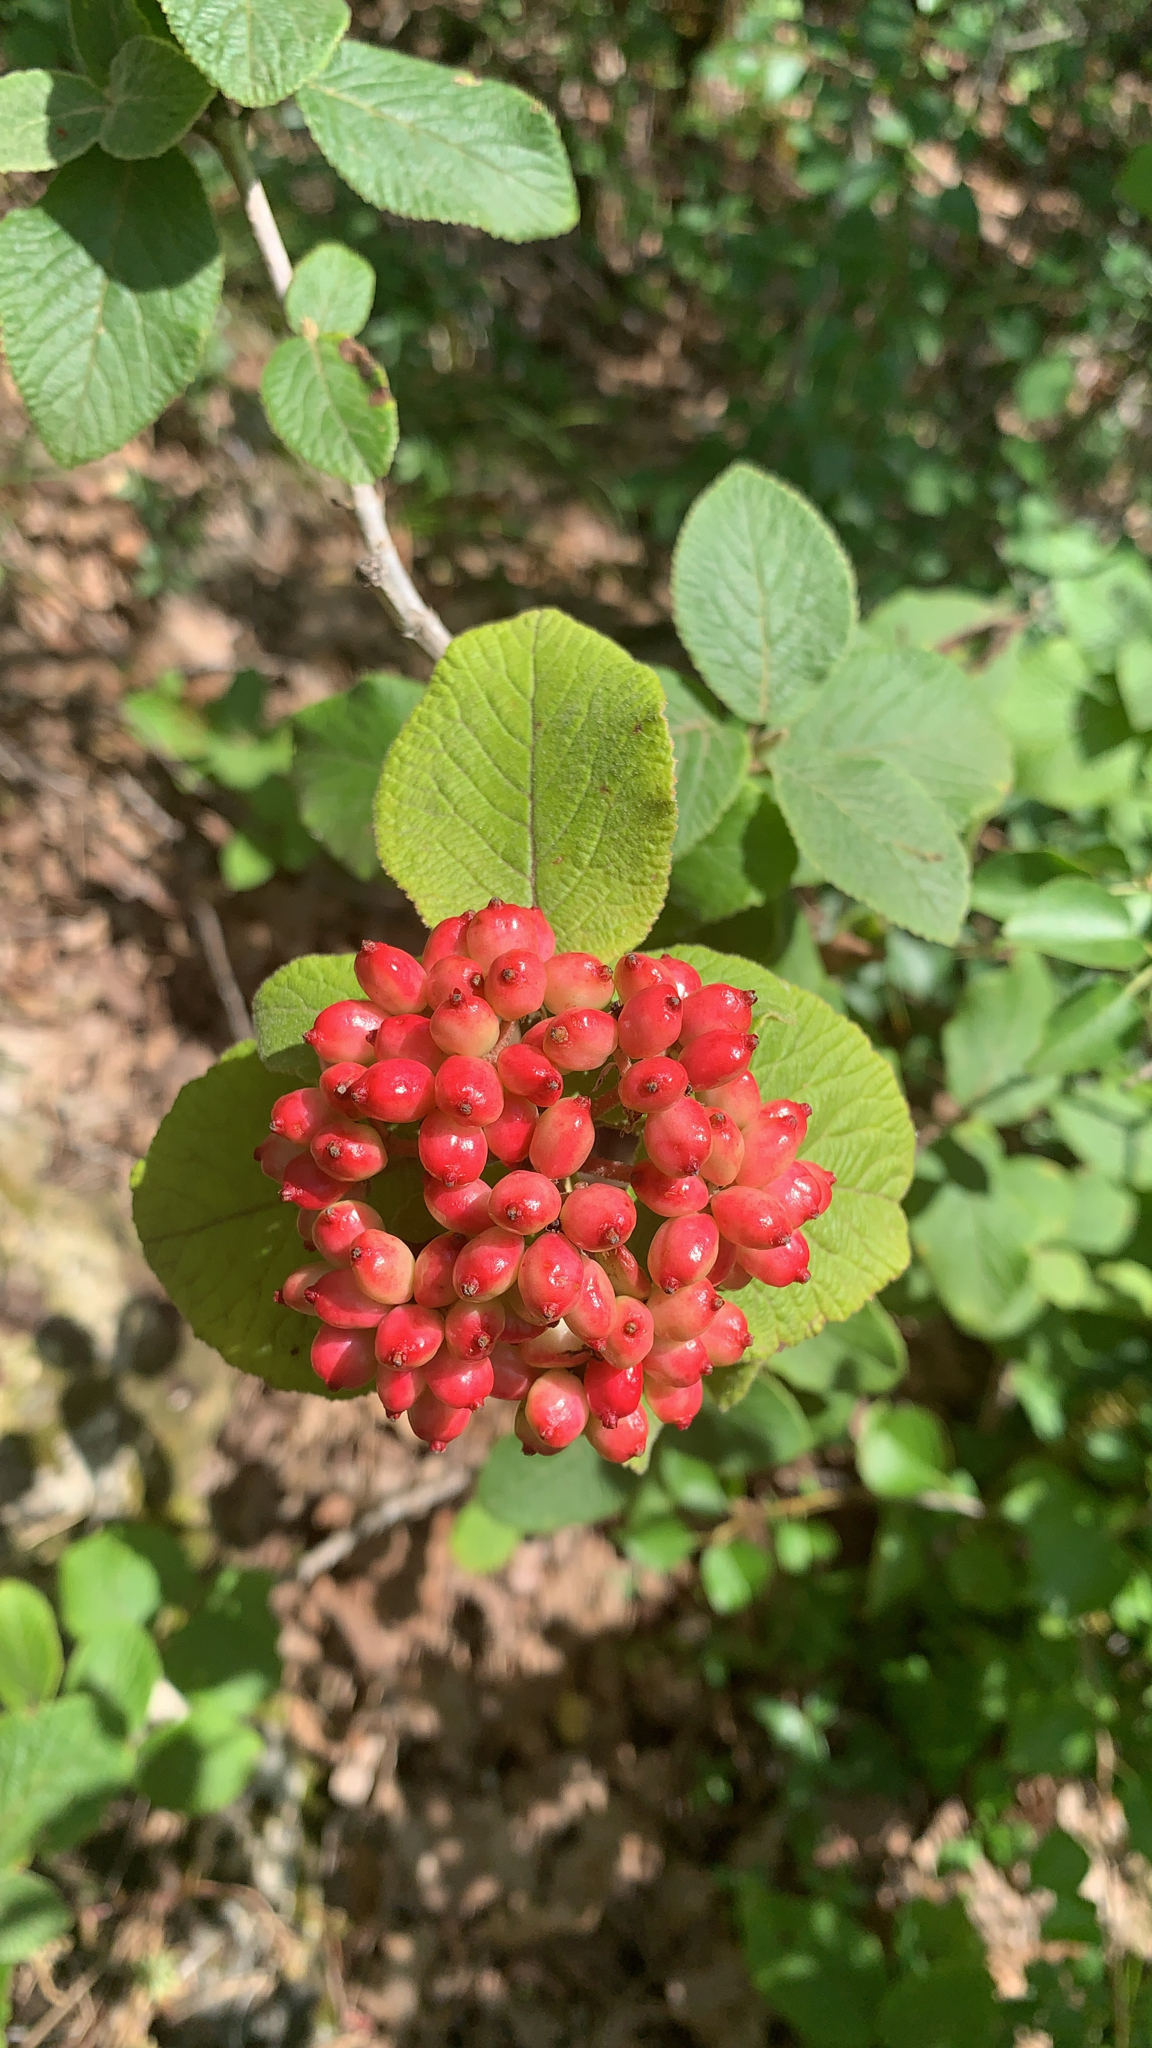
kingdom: Plantae
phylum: Tracheophyta
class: Magnoliopsida
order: Dipsacales
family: Viburnaceae
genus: Viburnum
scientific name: Viburnum lantana
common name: Wayfaring tree
